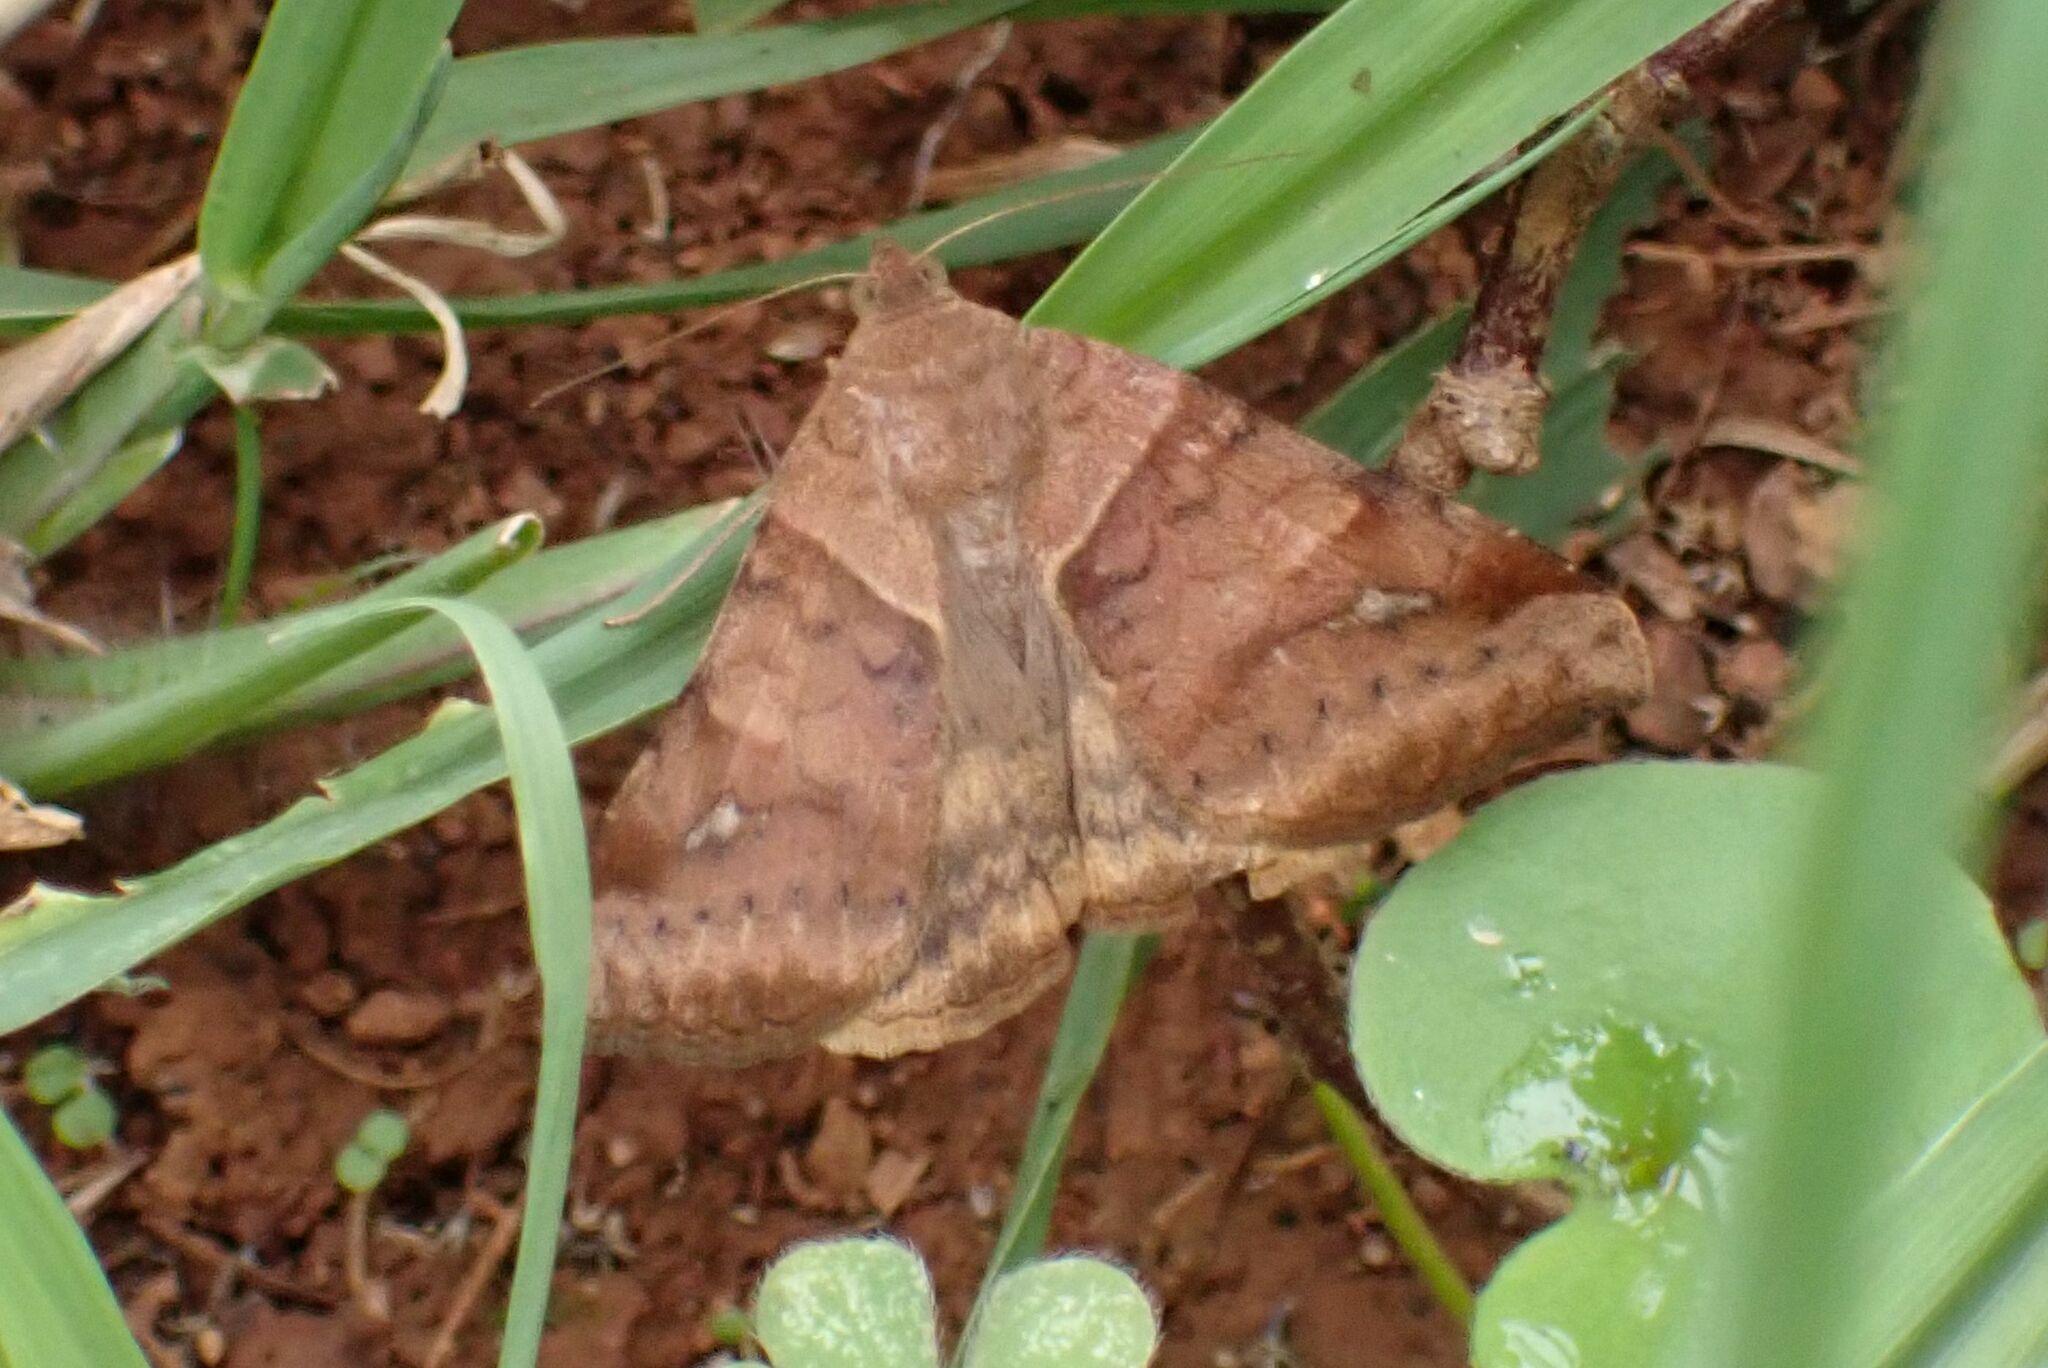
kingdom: Animalia
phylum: Arthropoda
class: Insecta
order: Lepidoptera
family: Erebidae
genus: Mocis
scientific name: Mocis mayeri
